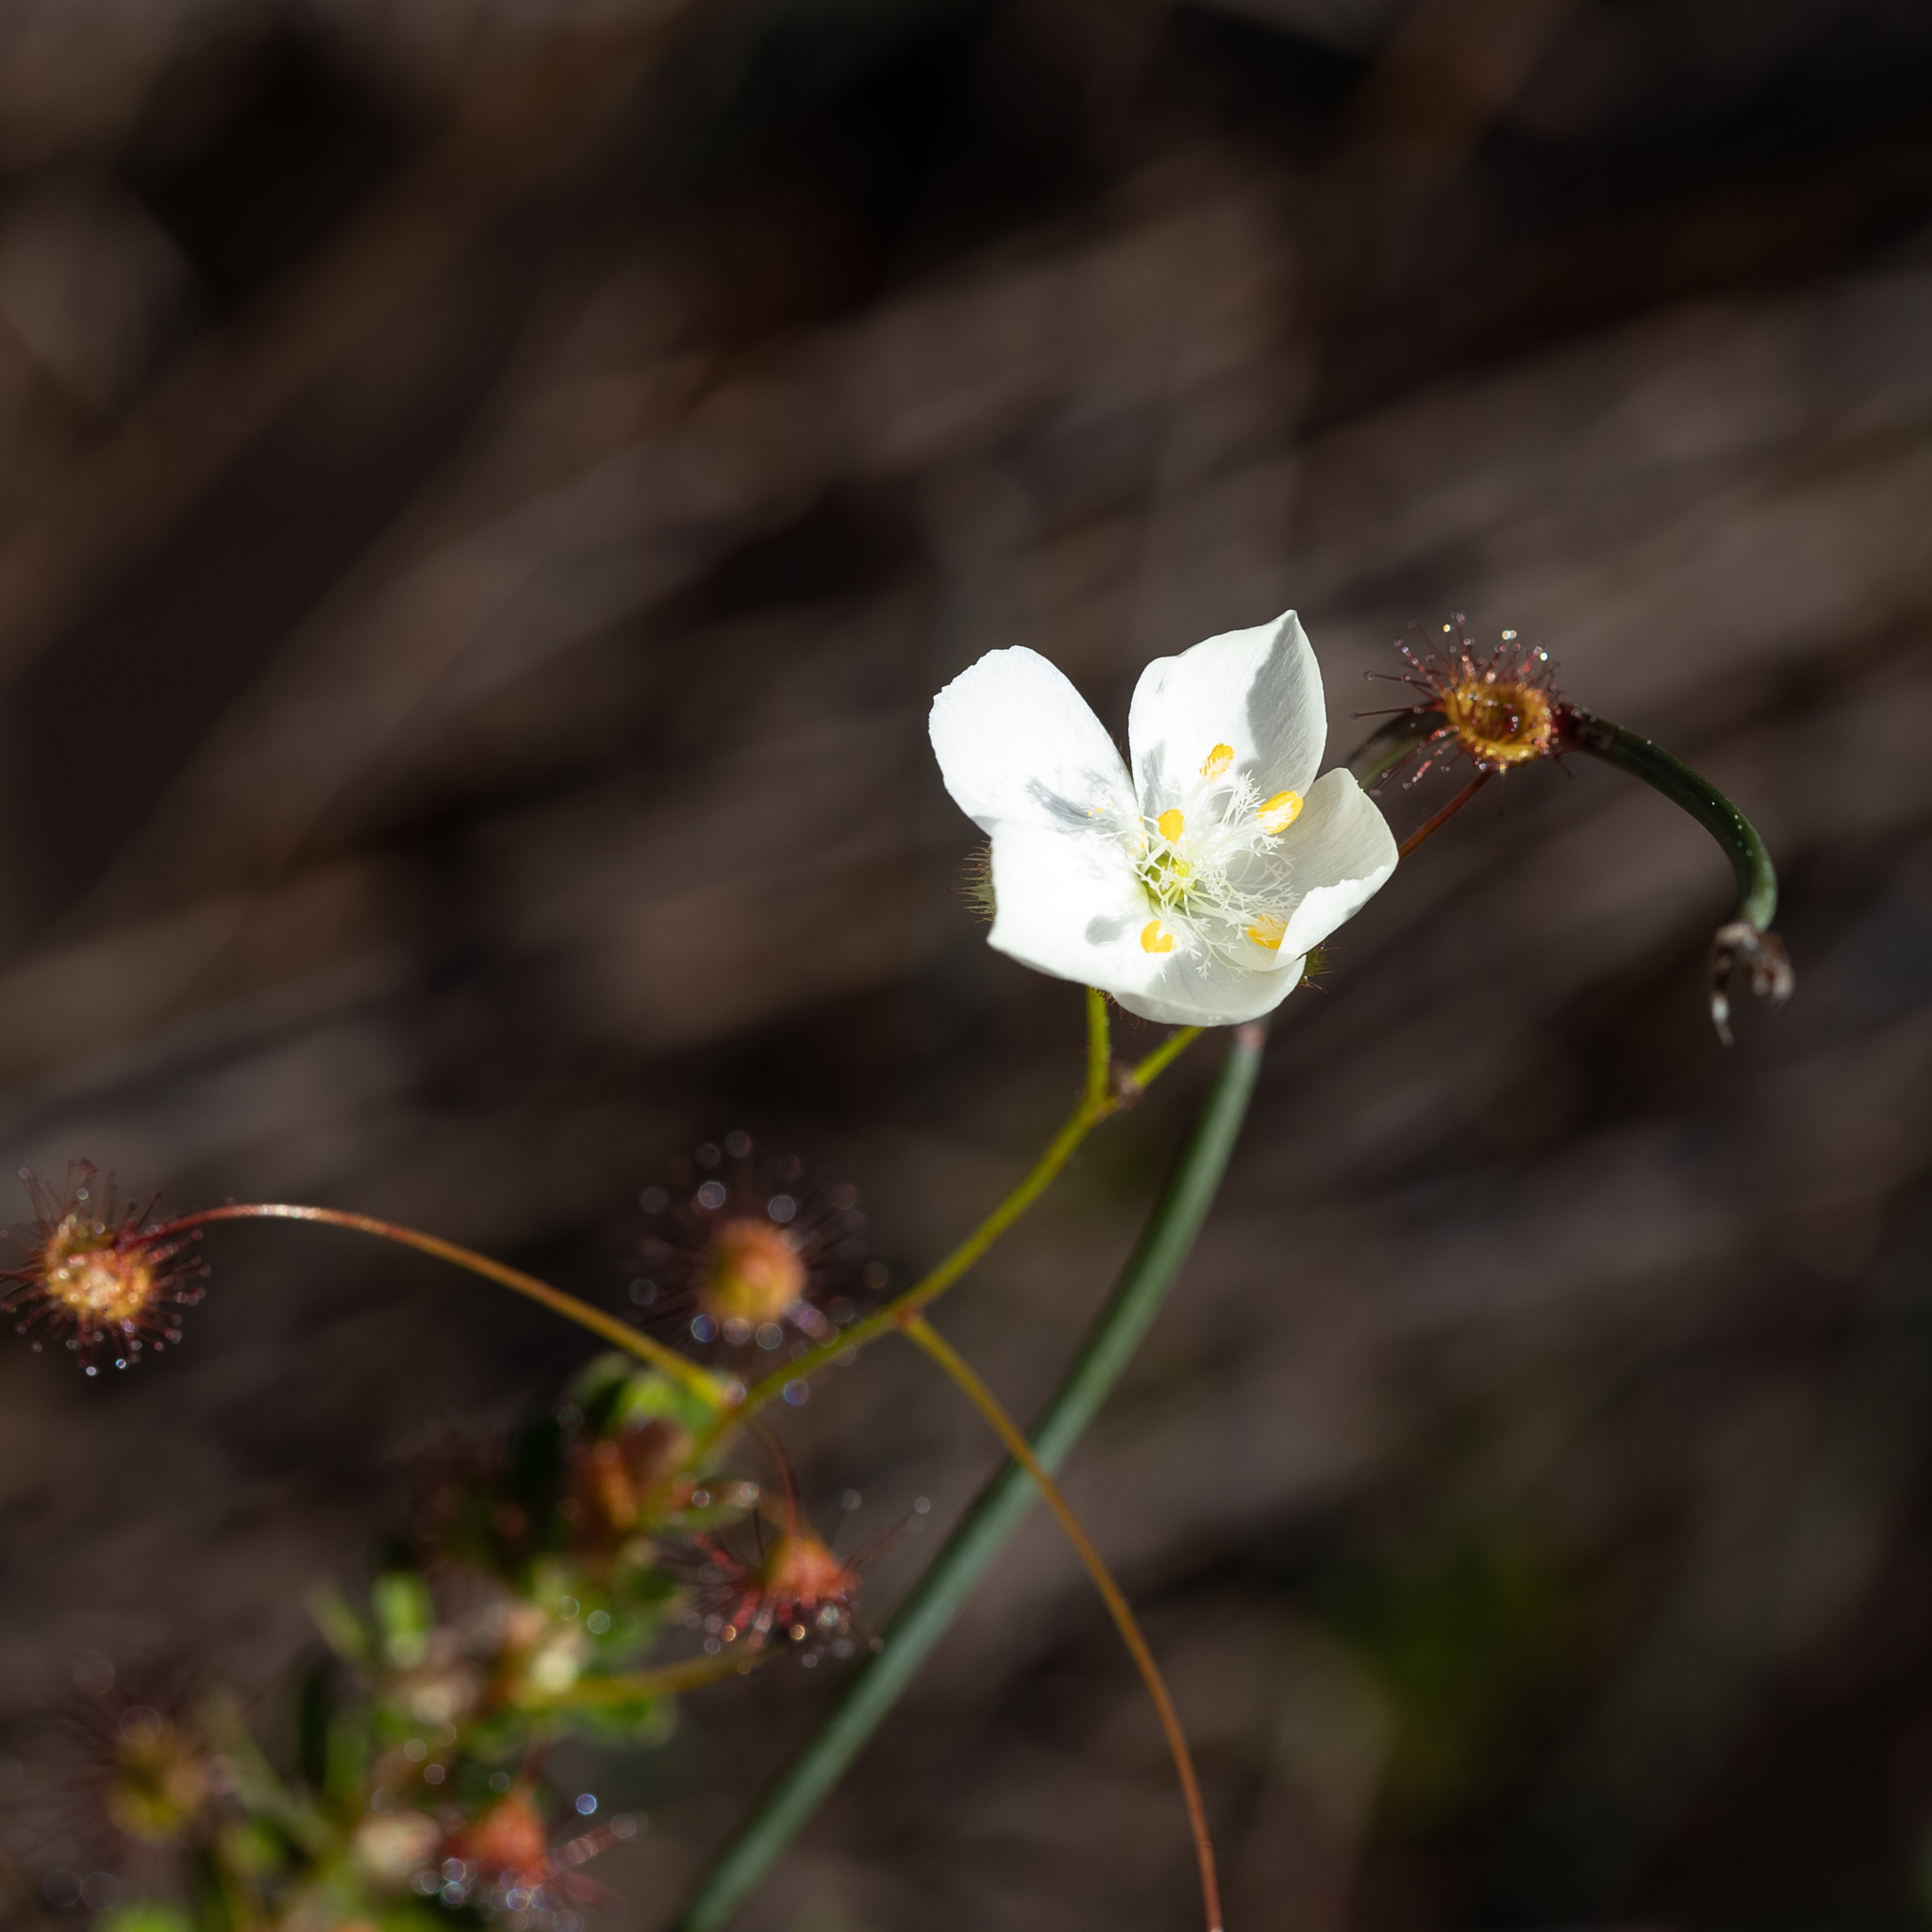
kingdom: Plantae
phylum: Tracheophyta
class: Magnoliopsida
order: Caryophyllales
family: Droseraceae
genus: Drosera
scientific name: Drosera planchonii
